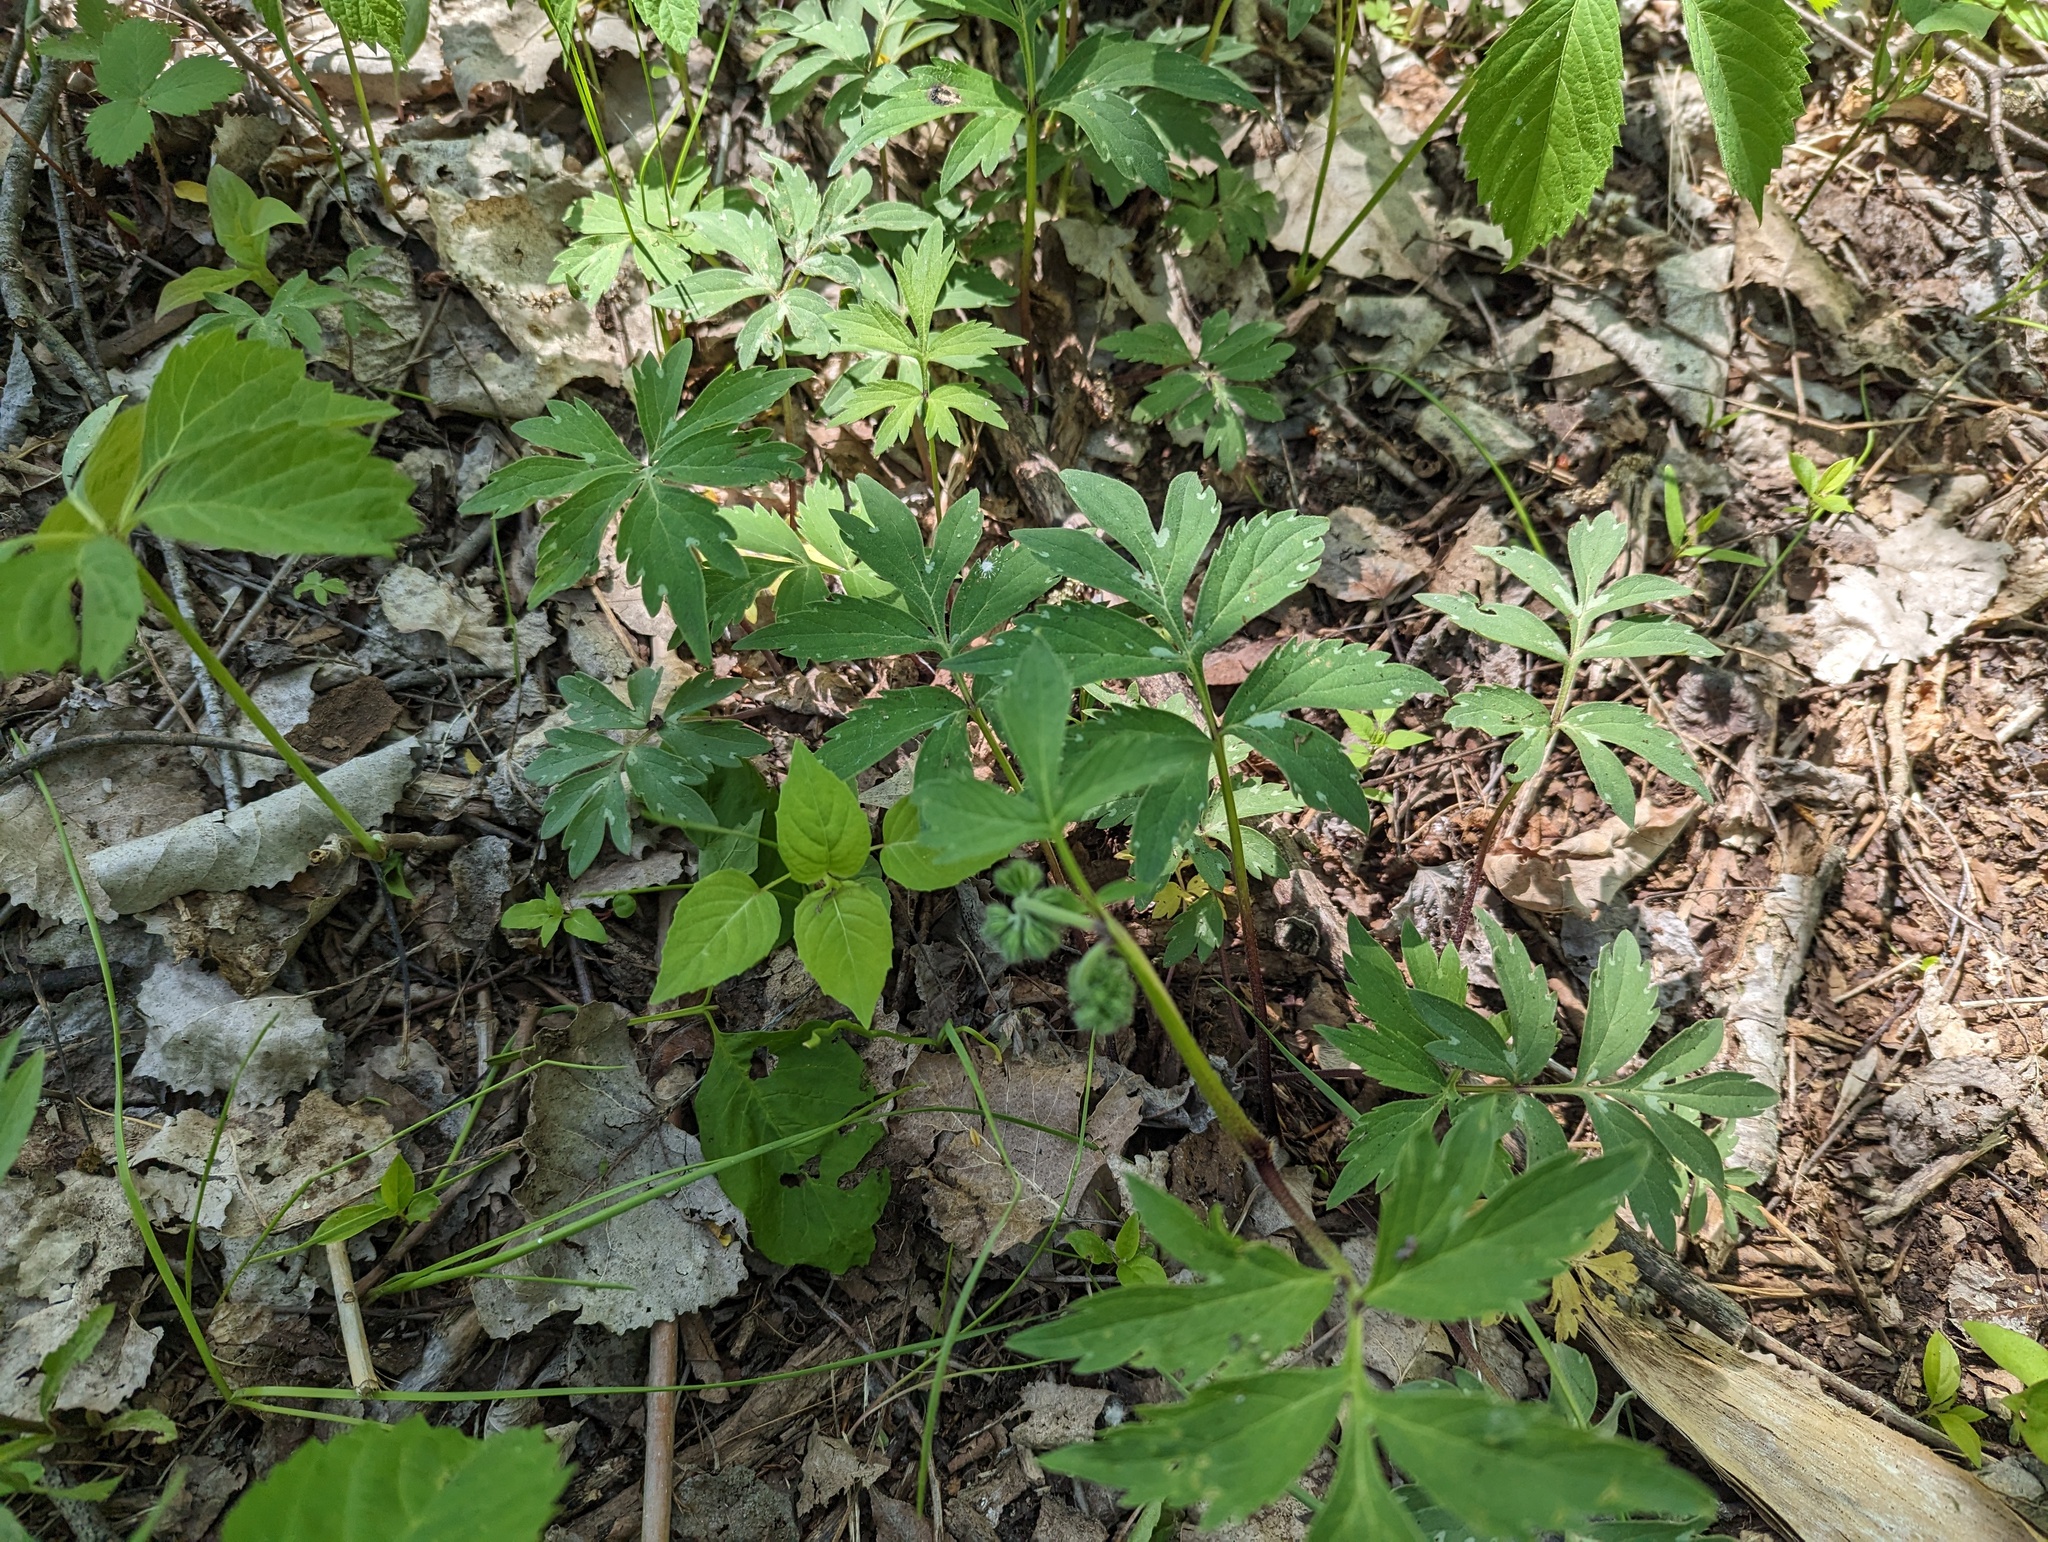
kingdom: Plantae
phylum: Tracheophyta
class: Magnoliopsida
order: Boraginales
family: Hydrophyllaceae
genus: Hydrophyllum
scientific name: Hydrophyllum virginianum
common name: Virginia waterleaf
